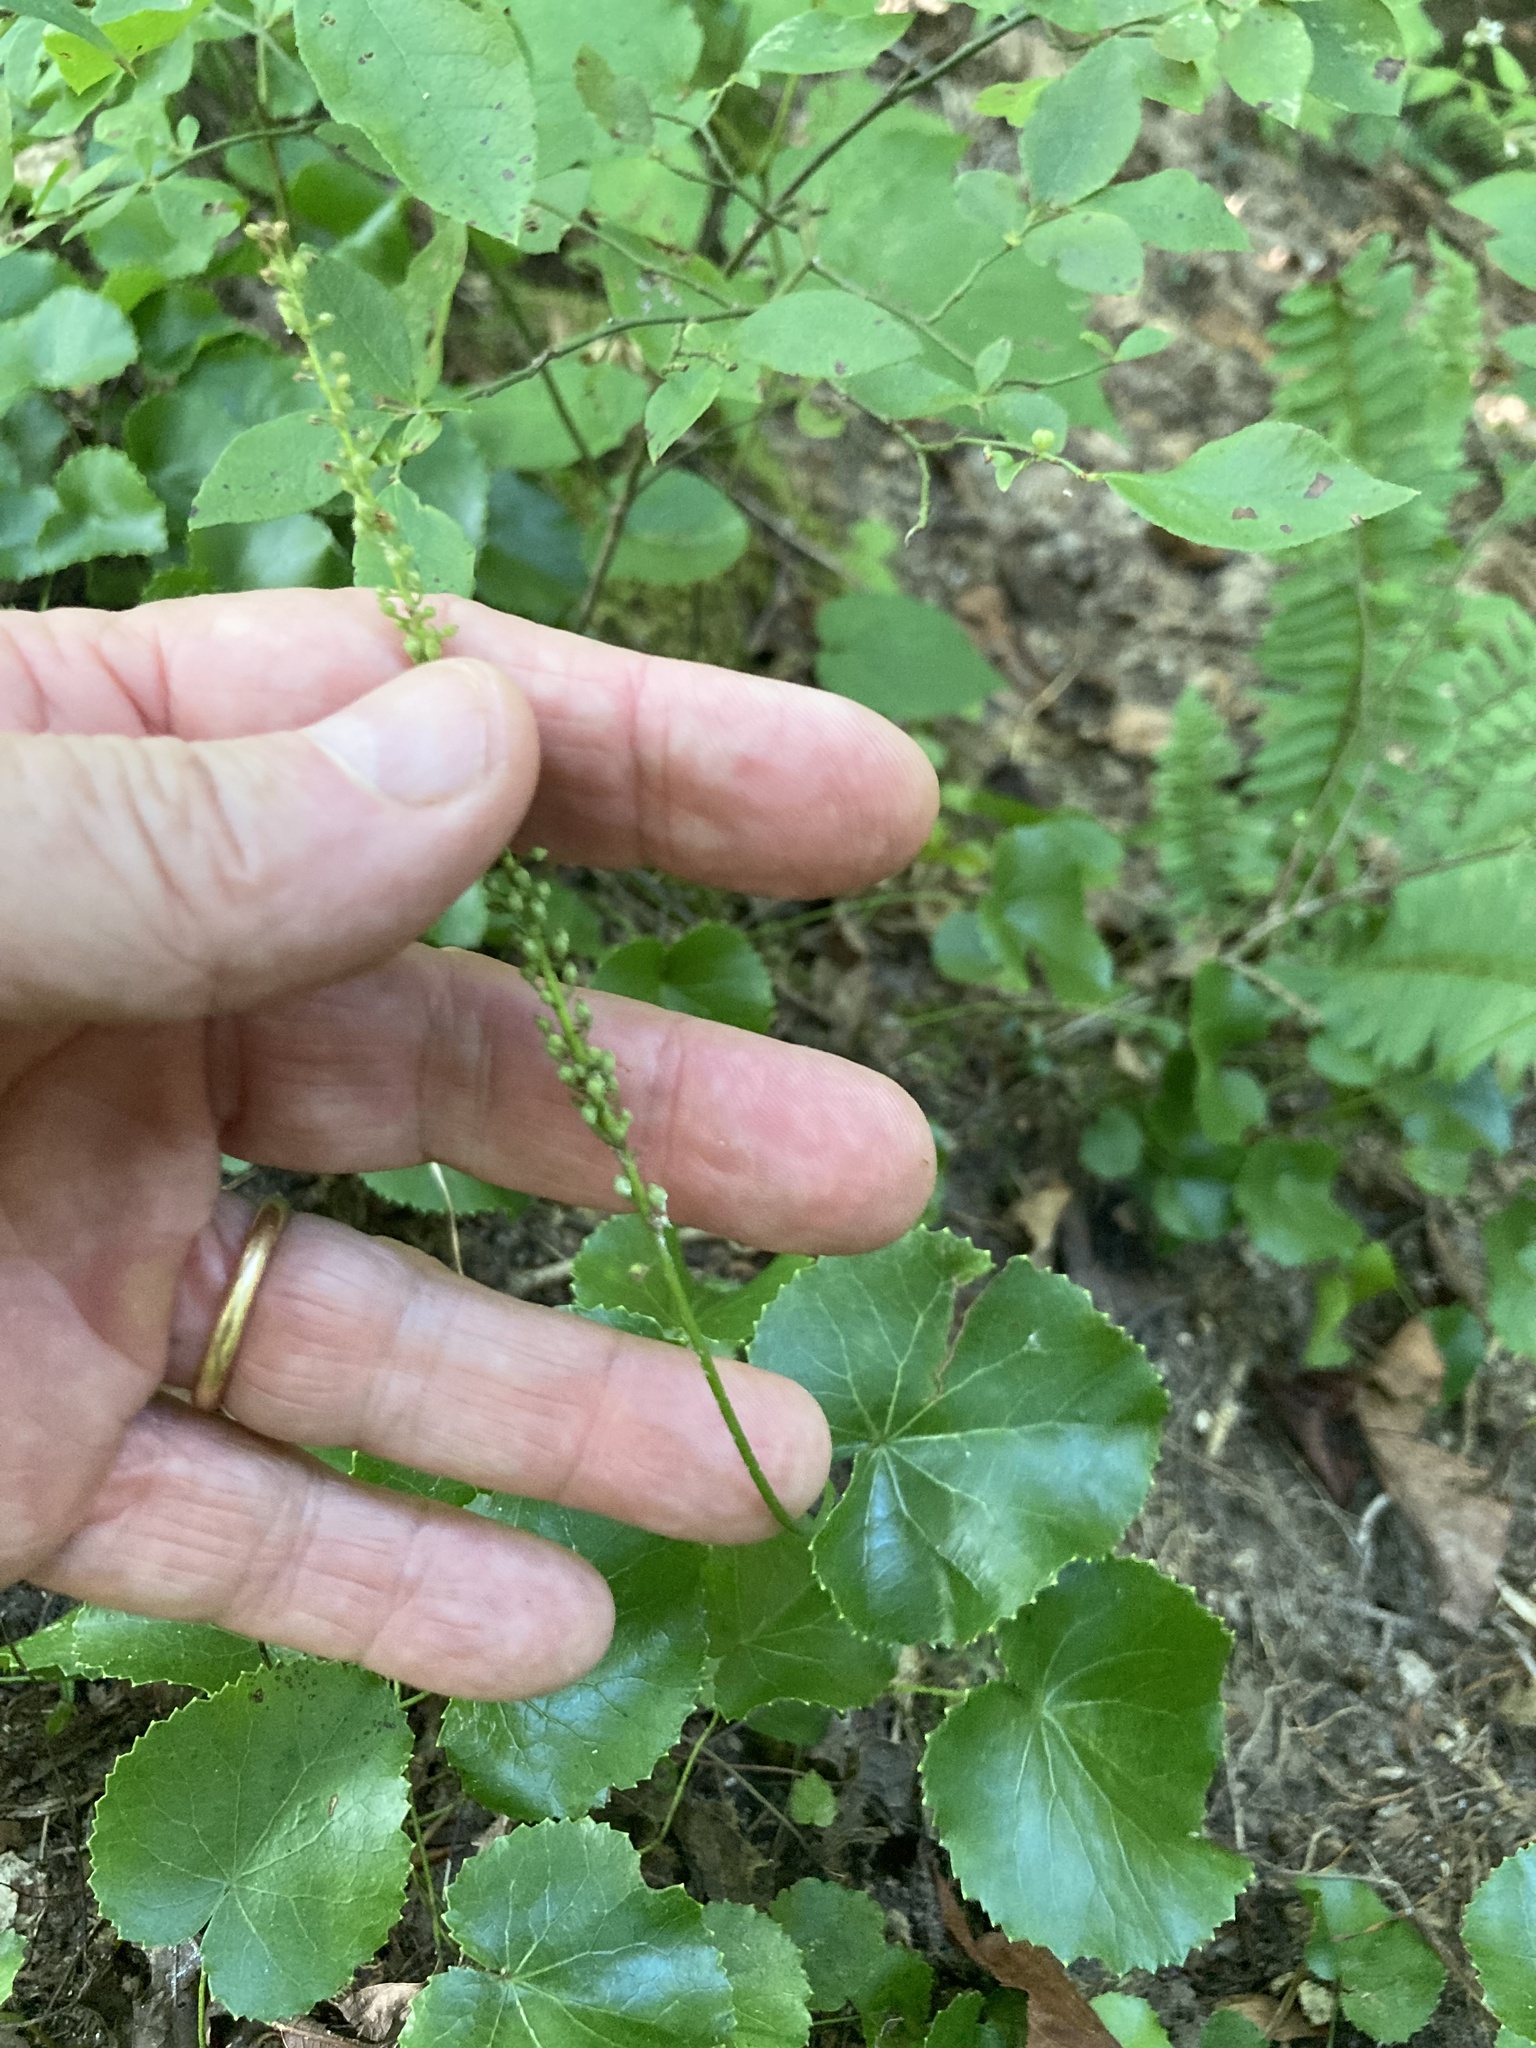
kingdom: Plantae
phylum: Tracheophyta
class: Magnoliopsida
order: Ericales
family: Diapensiaceae
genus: Galax
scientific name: Galax urceolata
